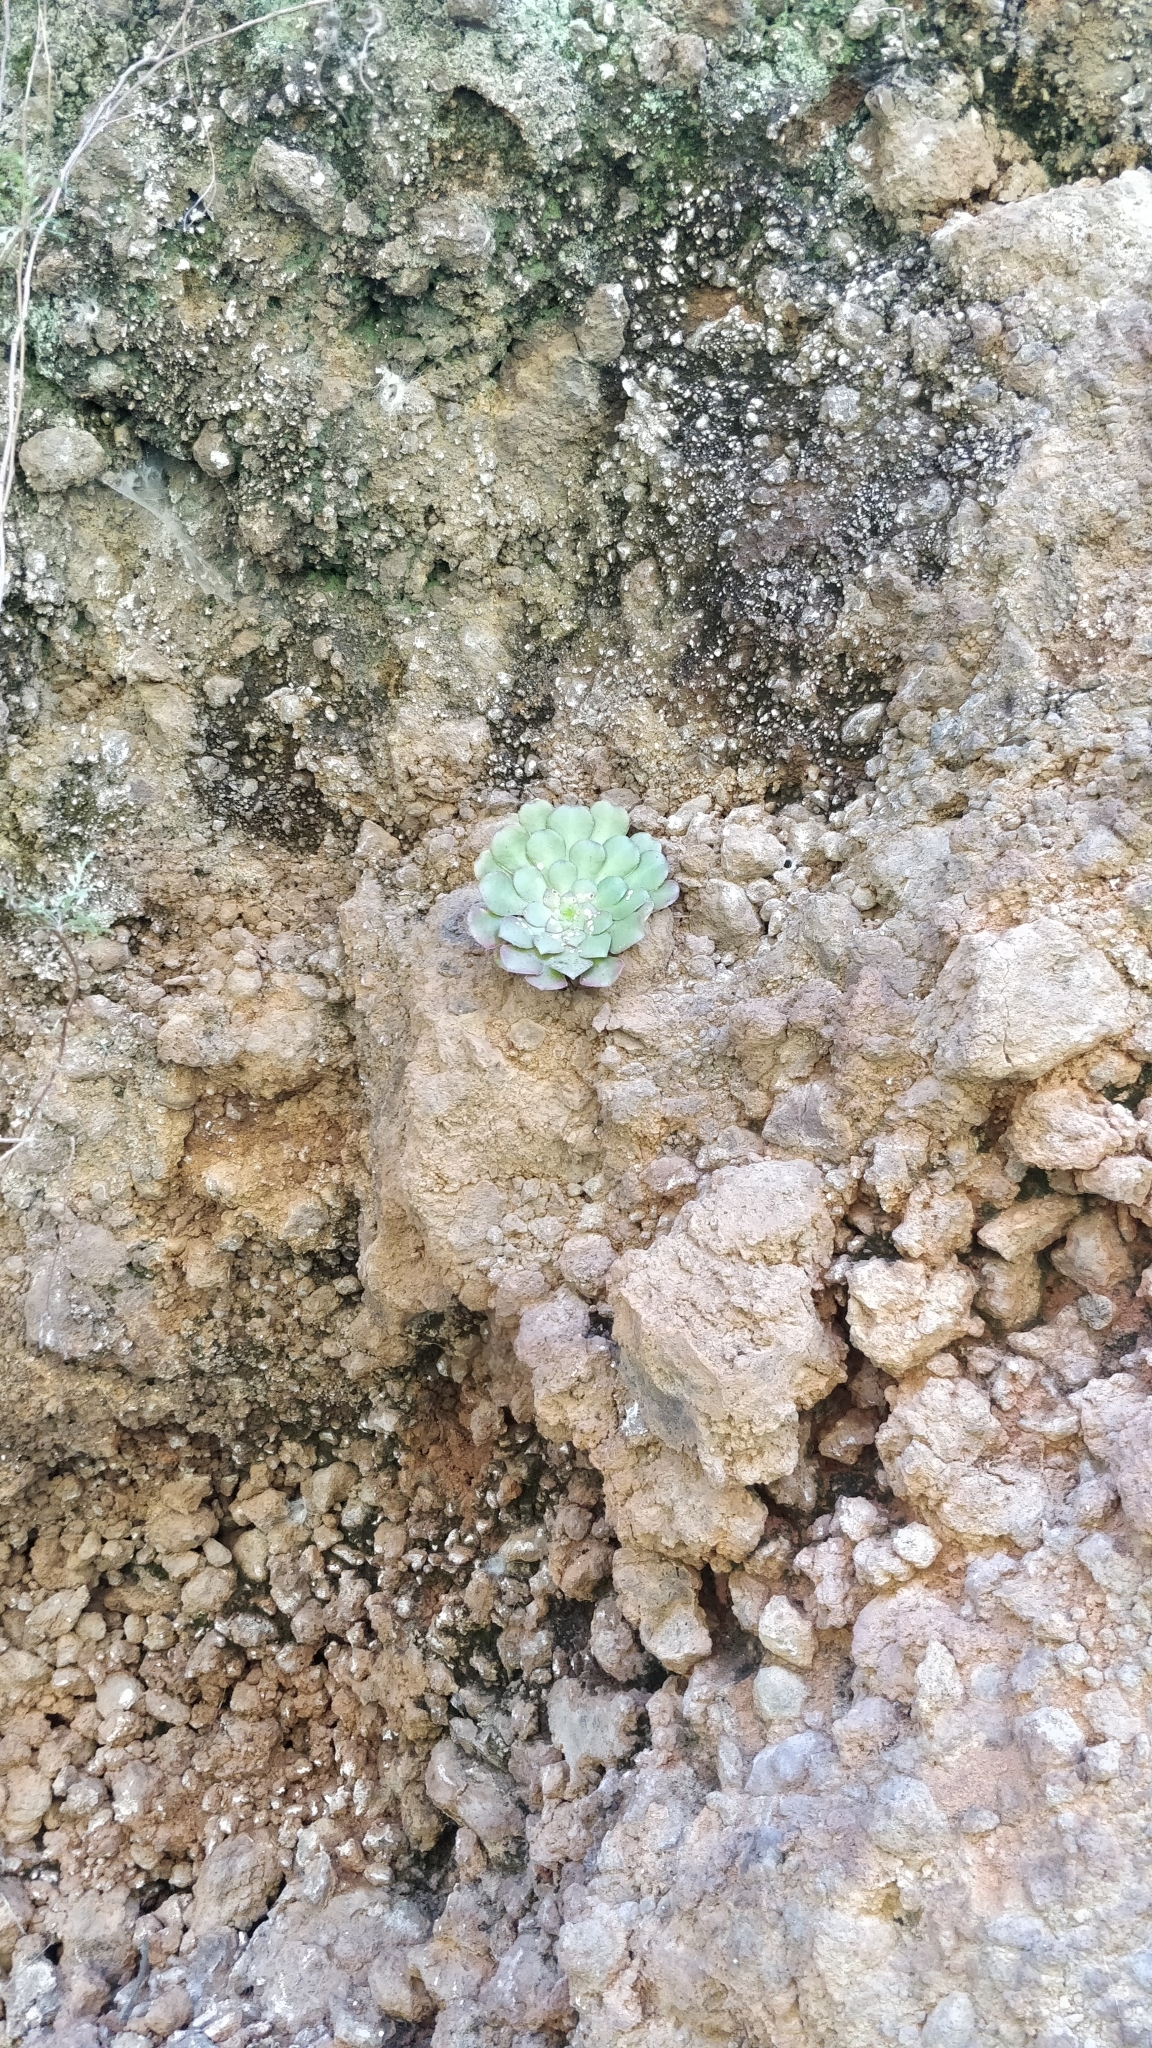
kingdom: Plantae
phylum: Tracheophyta
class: Magnoliopsida
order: Saxifragales
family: Crassulaceae
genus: Aeonium
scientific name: Aeonium glandulosum
